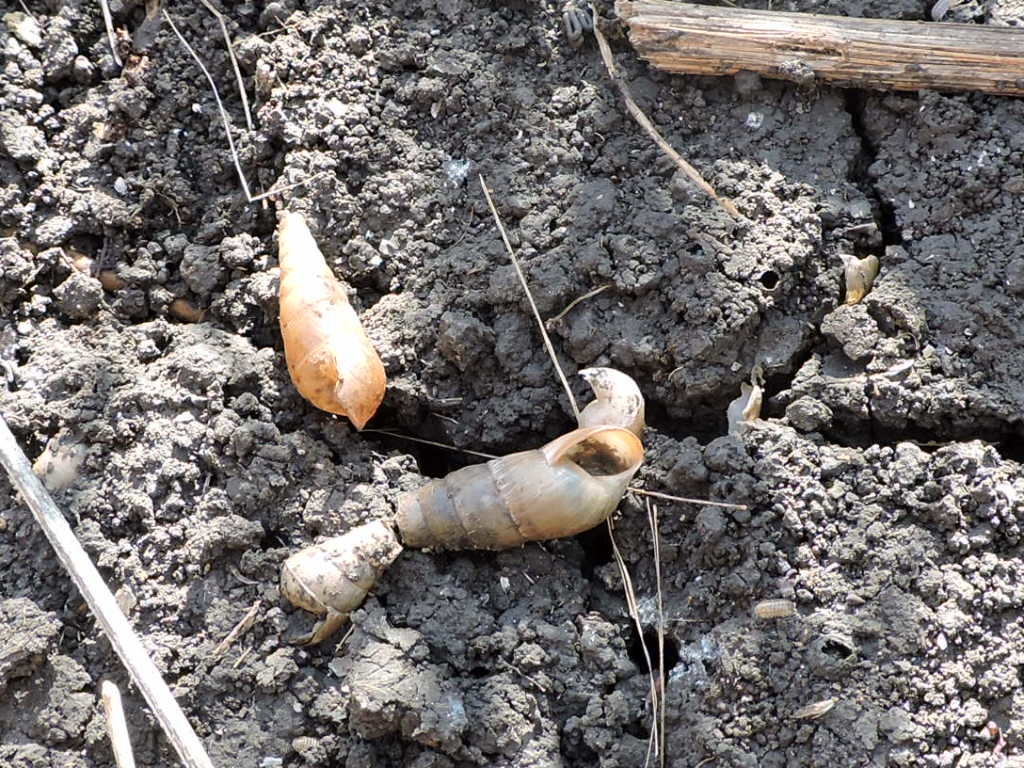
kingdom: Animalia
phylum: Mollusca
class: Gastropoda
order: Stylommatophora
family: Achatinidae
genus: Rumina
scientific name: Rumina decollata
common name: Decollate snail
